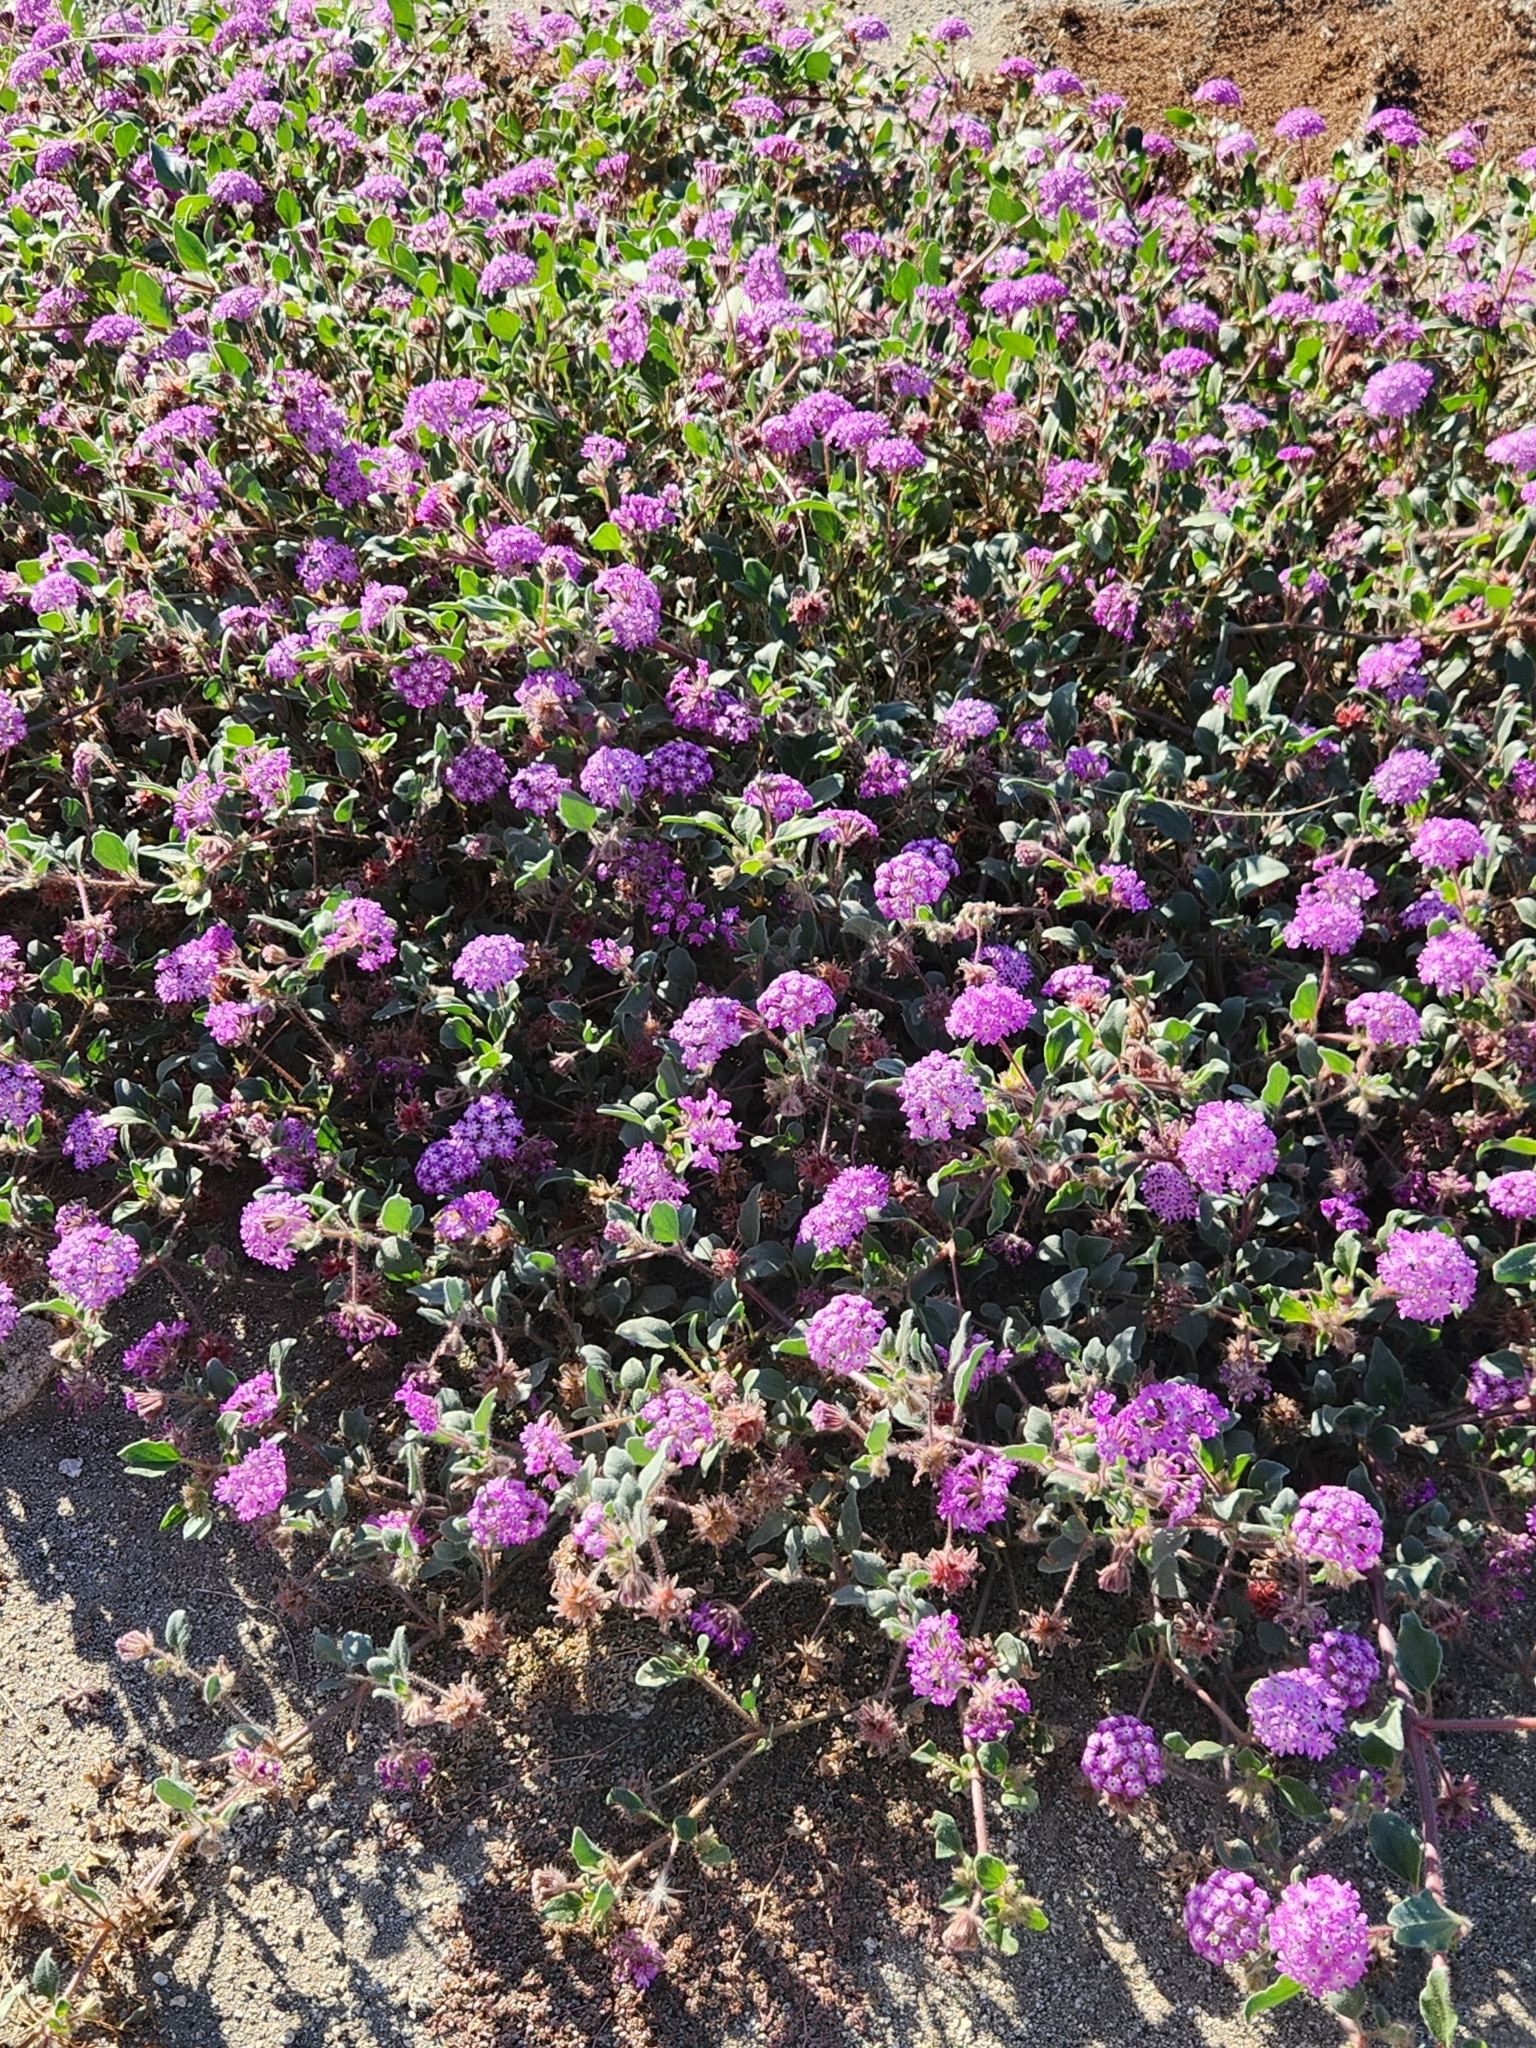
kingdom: Plantae
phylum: Tracheophyta
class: Magnoliopsida
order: Caryophyllales
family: Nyctaginaceae
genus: Abronia
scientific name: Abronia villosa
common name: Desert sand-verbena
